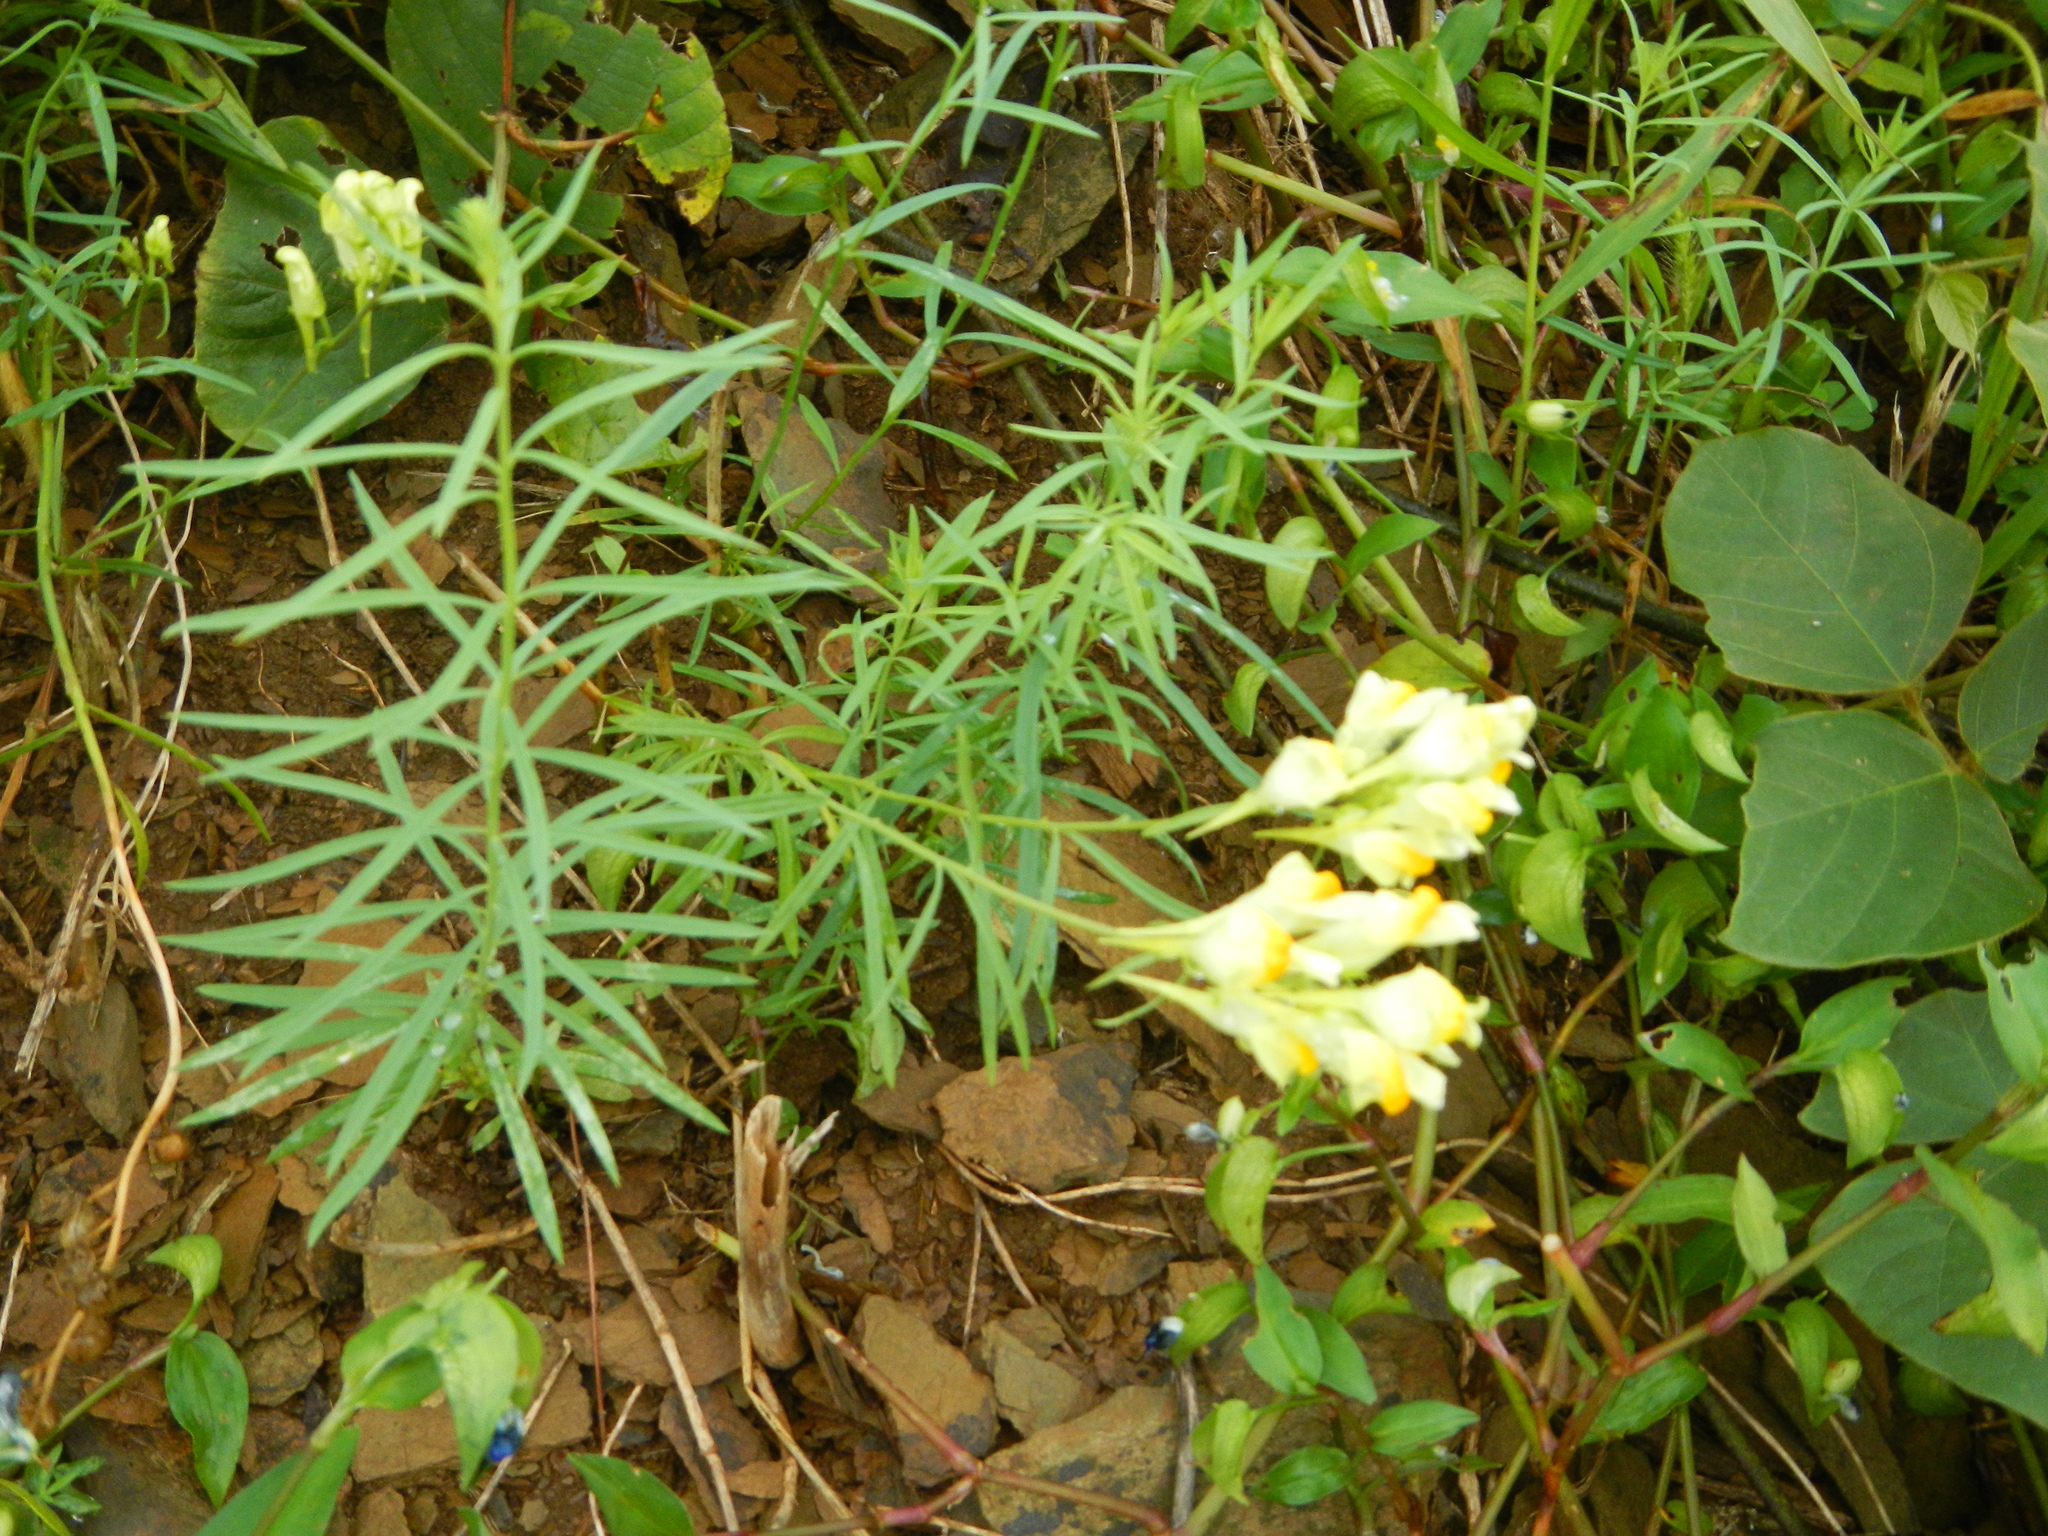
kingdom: Plantae
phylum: Tracheophyta
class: Magnoliopsida
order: Lamiales
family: Plantaginaceae
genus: Linaria
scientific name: Linaria vulgaris
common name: Butter and eggs
